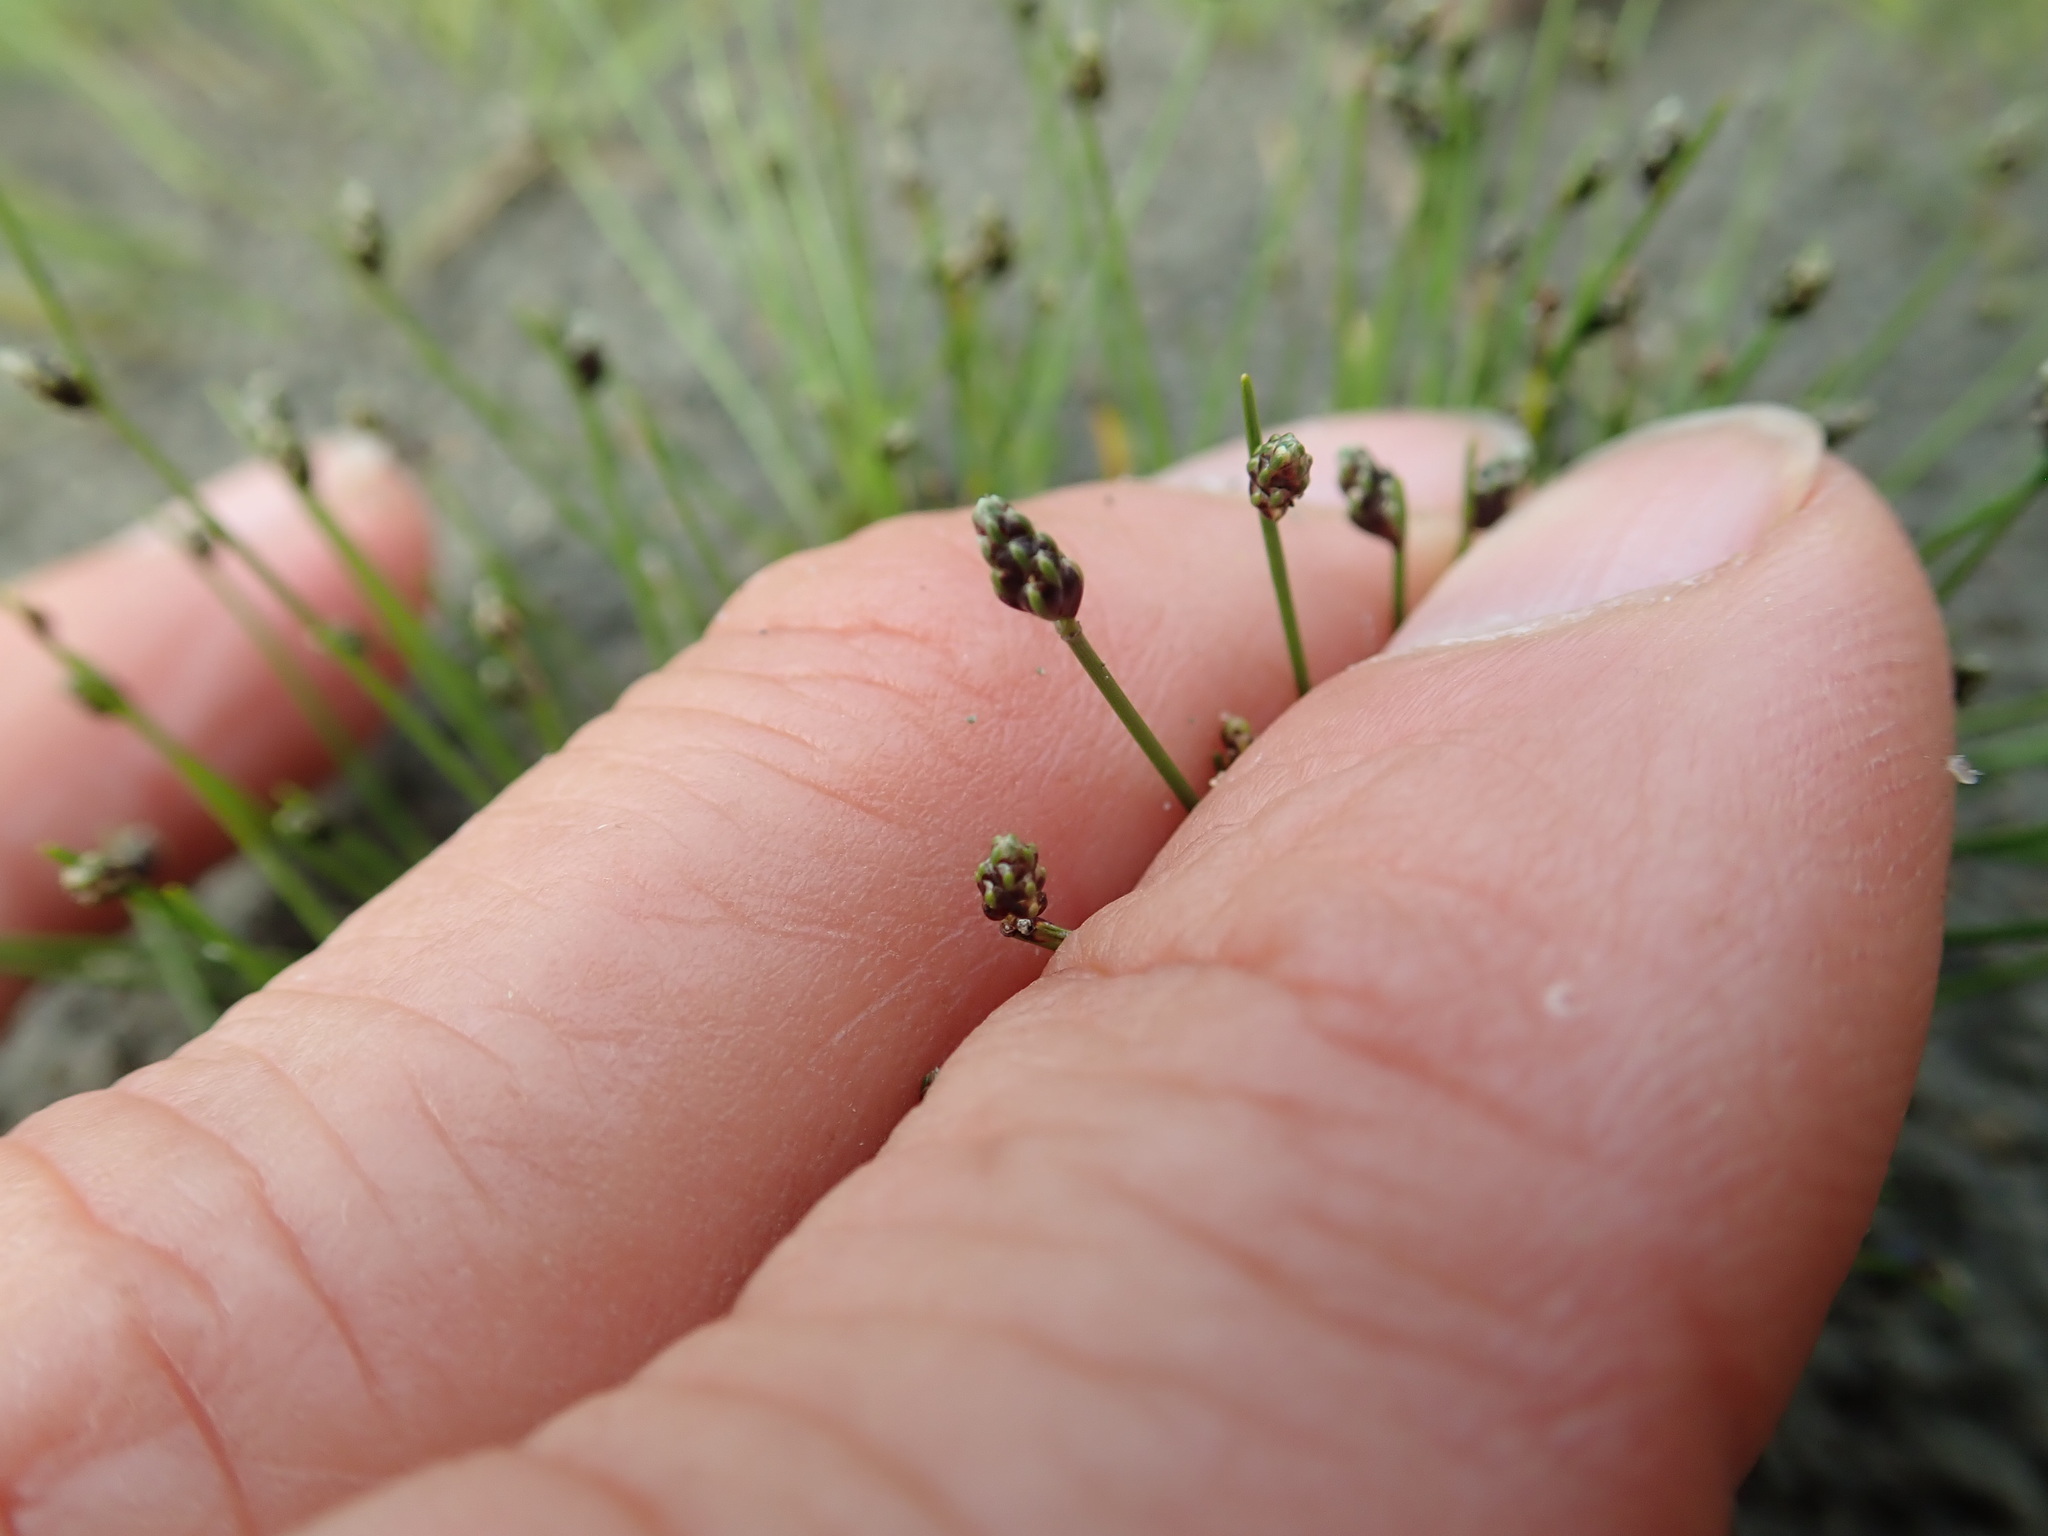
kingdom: Plantae
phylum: Tracheophyta
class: Liliopsida
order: Poales
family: Cyperaceae
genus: Isolepis
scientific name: Isolepis cernua
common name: Slender club-rush
